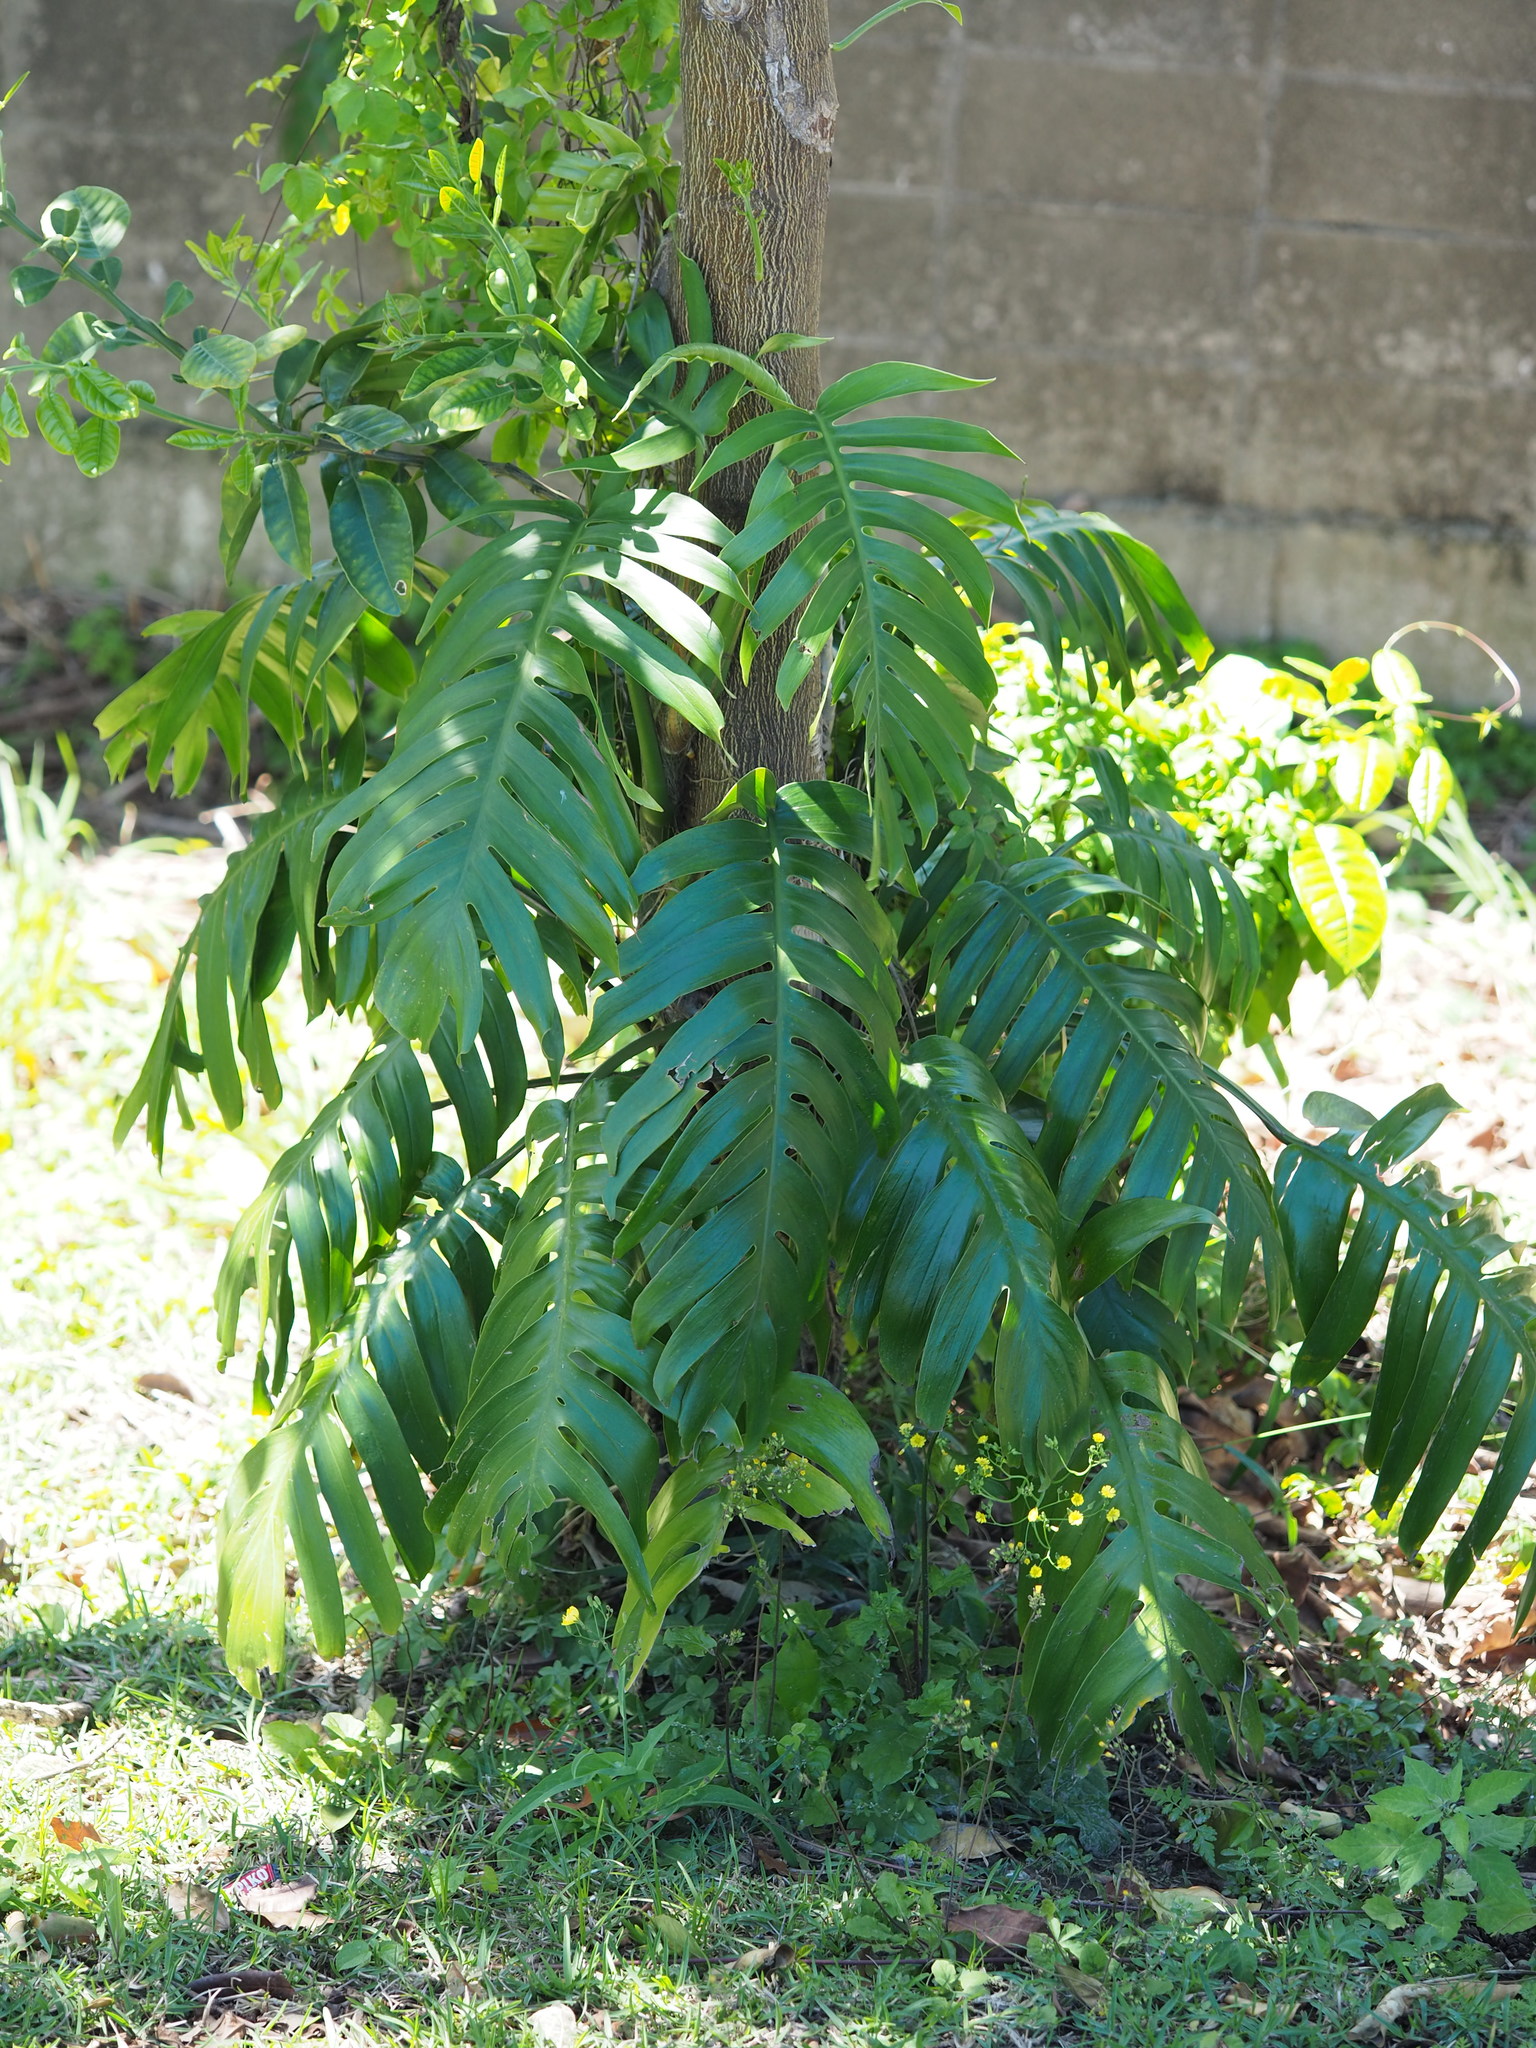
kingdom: Plantae
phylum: Tracheophyta
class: Liliopsida
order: Alismatales
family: Araceae
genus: Epipremnum
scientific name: Epipremnum pinnatum
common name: Centipede tongavine
